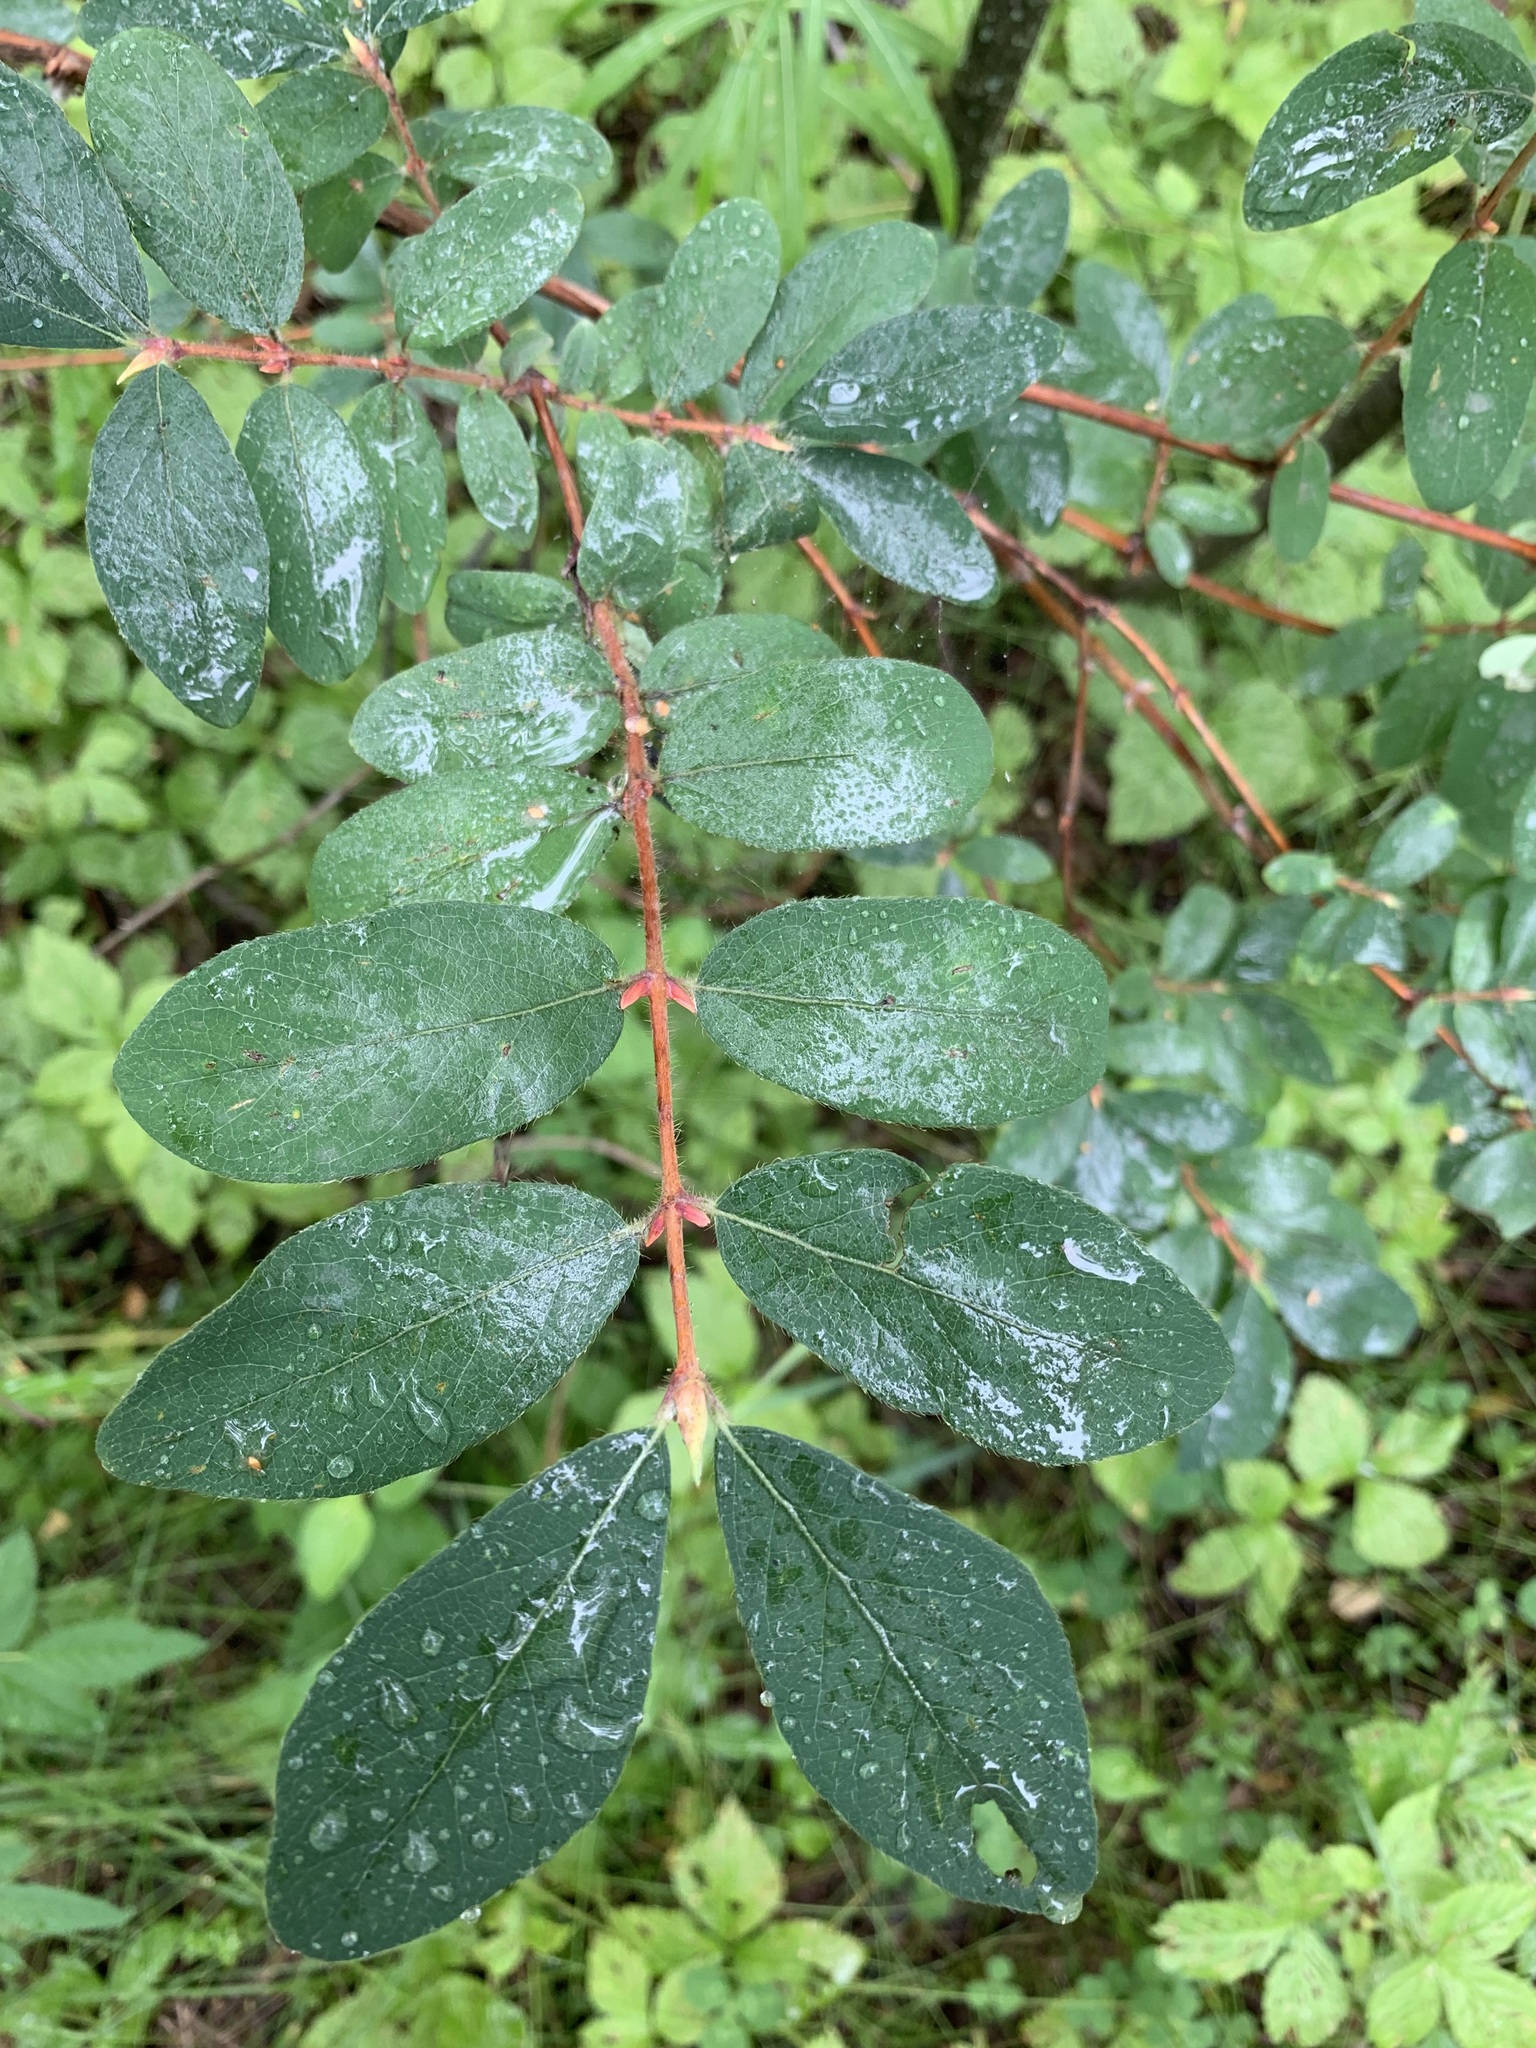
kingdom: Plantae
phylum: Tracheophyta
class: Magnoliopsida
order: Dipsacales
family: Caprifoliaceae
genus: Lonicera
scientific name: Lonicera caerulea
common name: Blue honeysuckle
